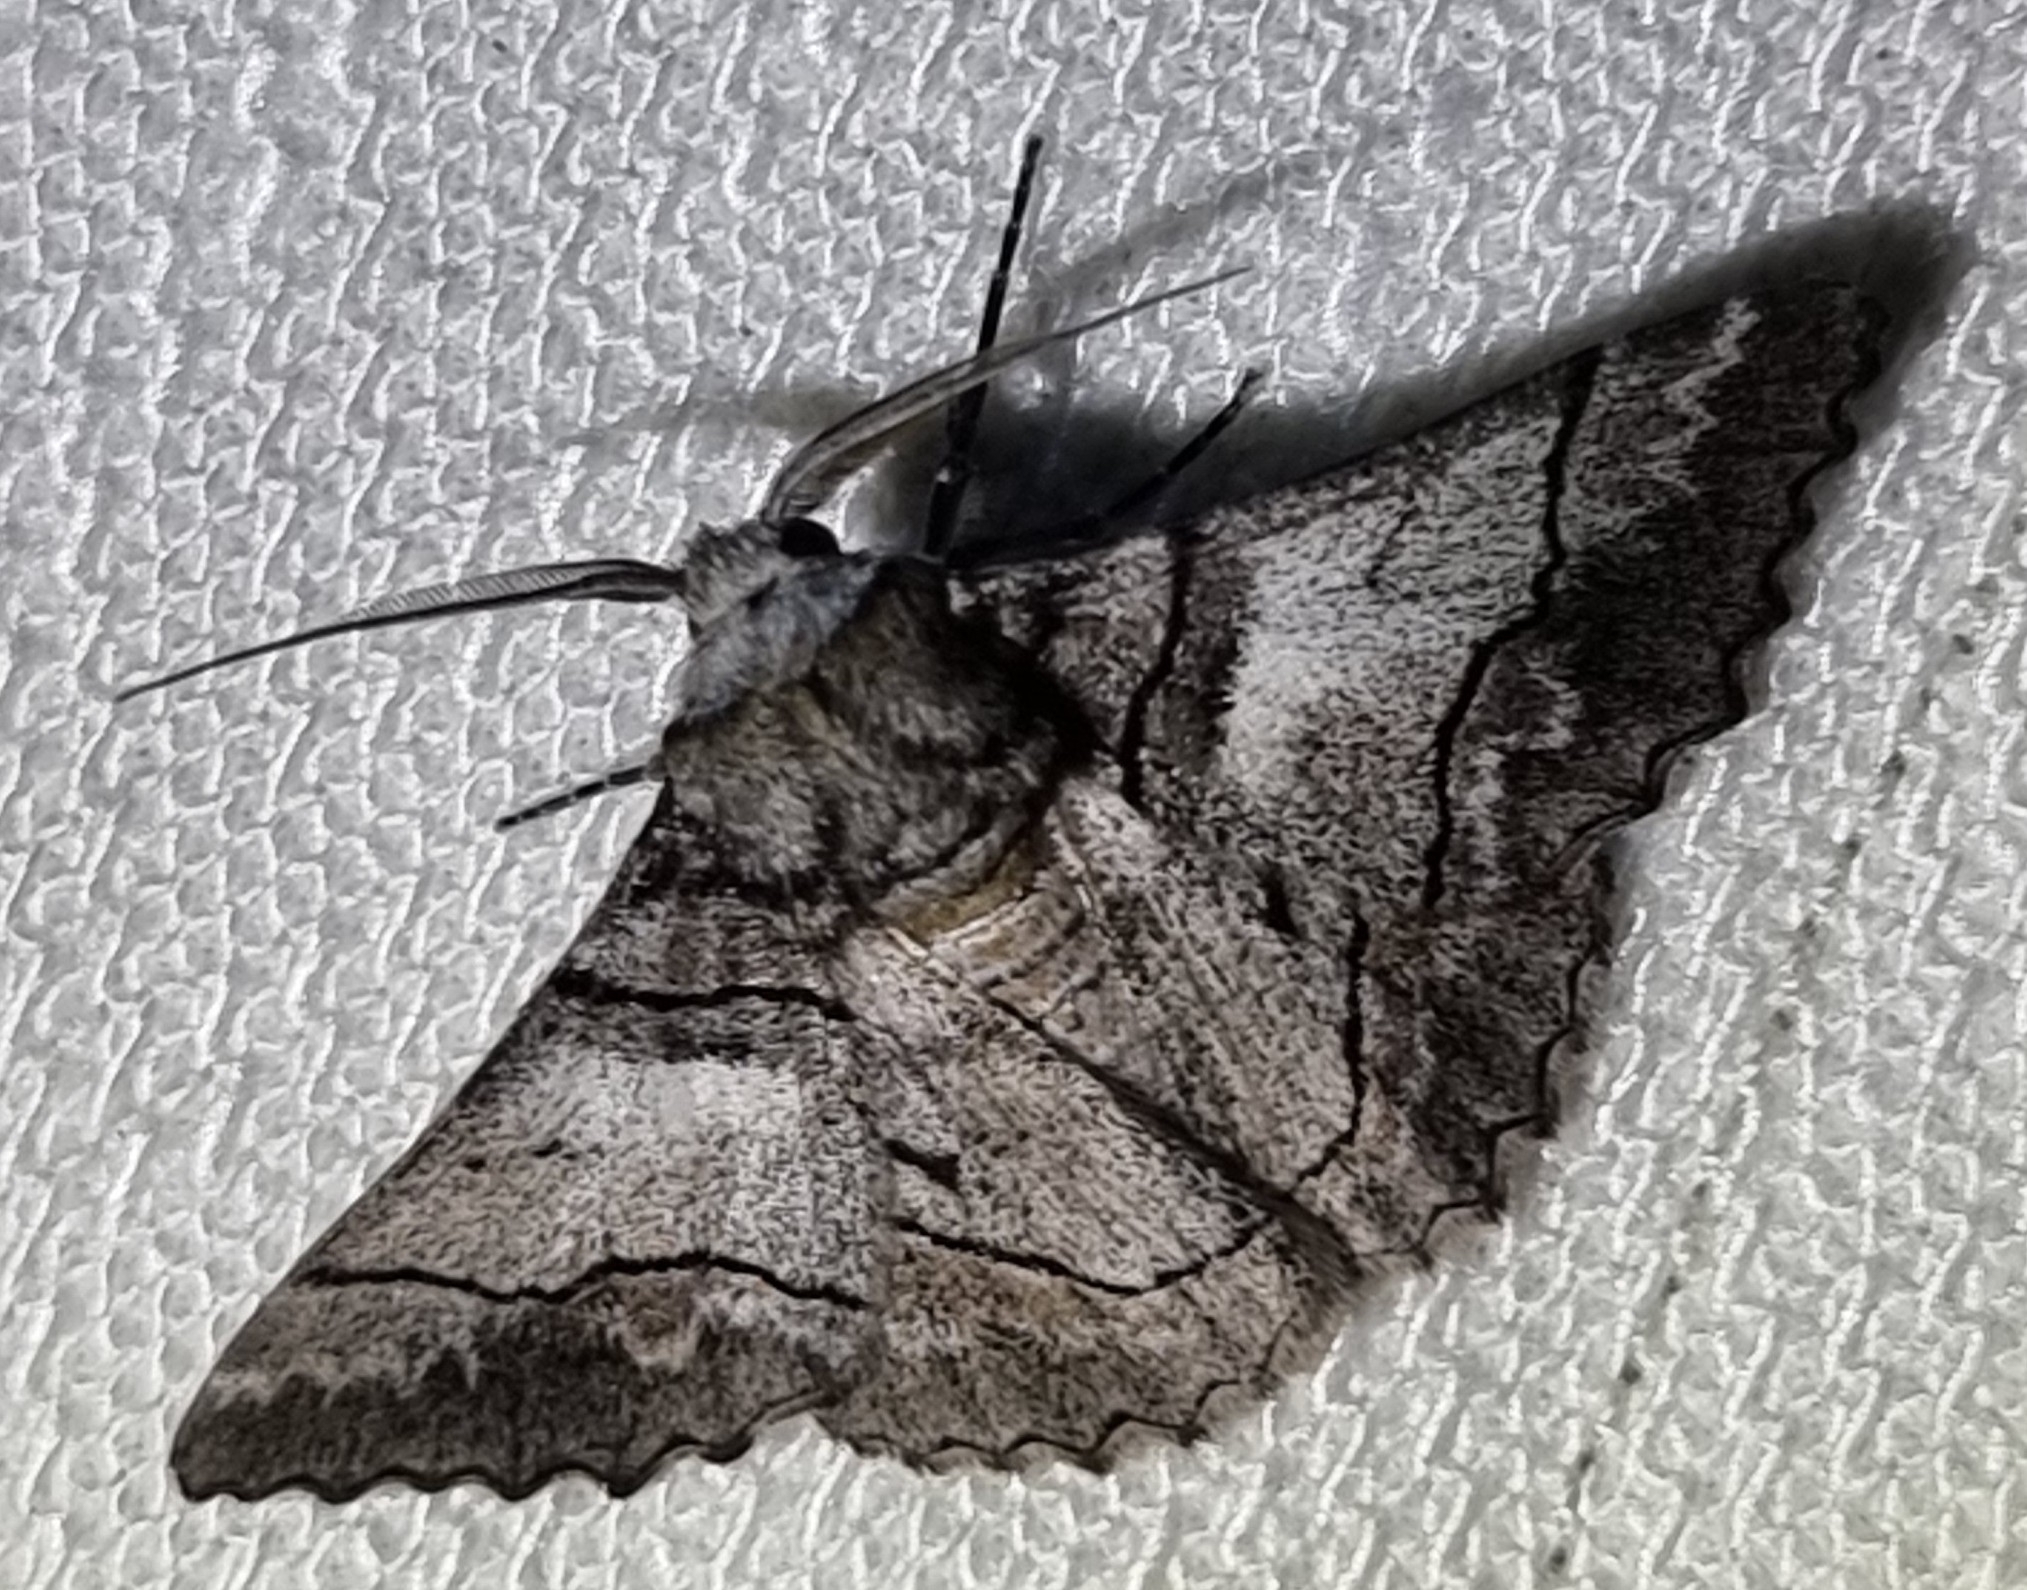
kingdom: Animalia
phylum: Arthropoda
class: Insecta
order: Lepidoptera
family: Geometridae
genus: Hypobapta
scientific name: Hypobapta diffundens
